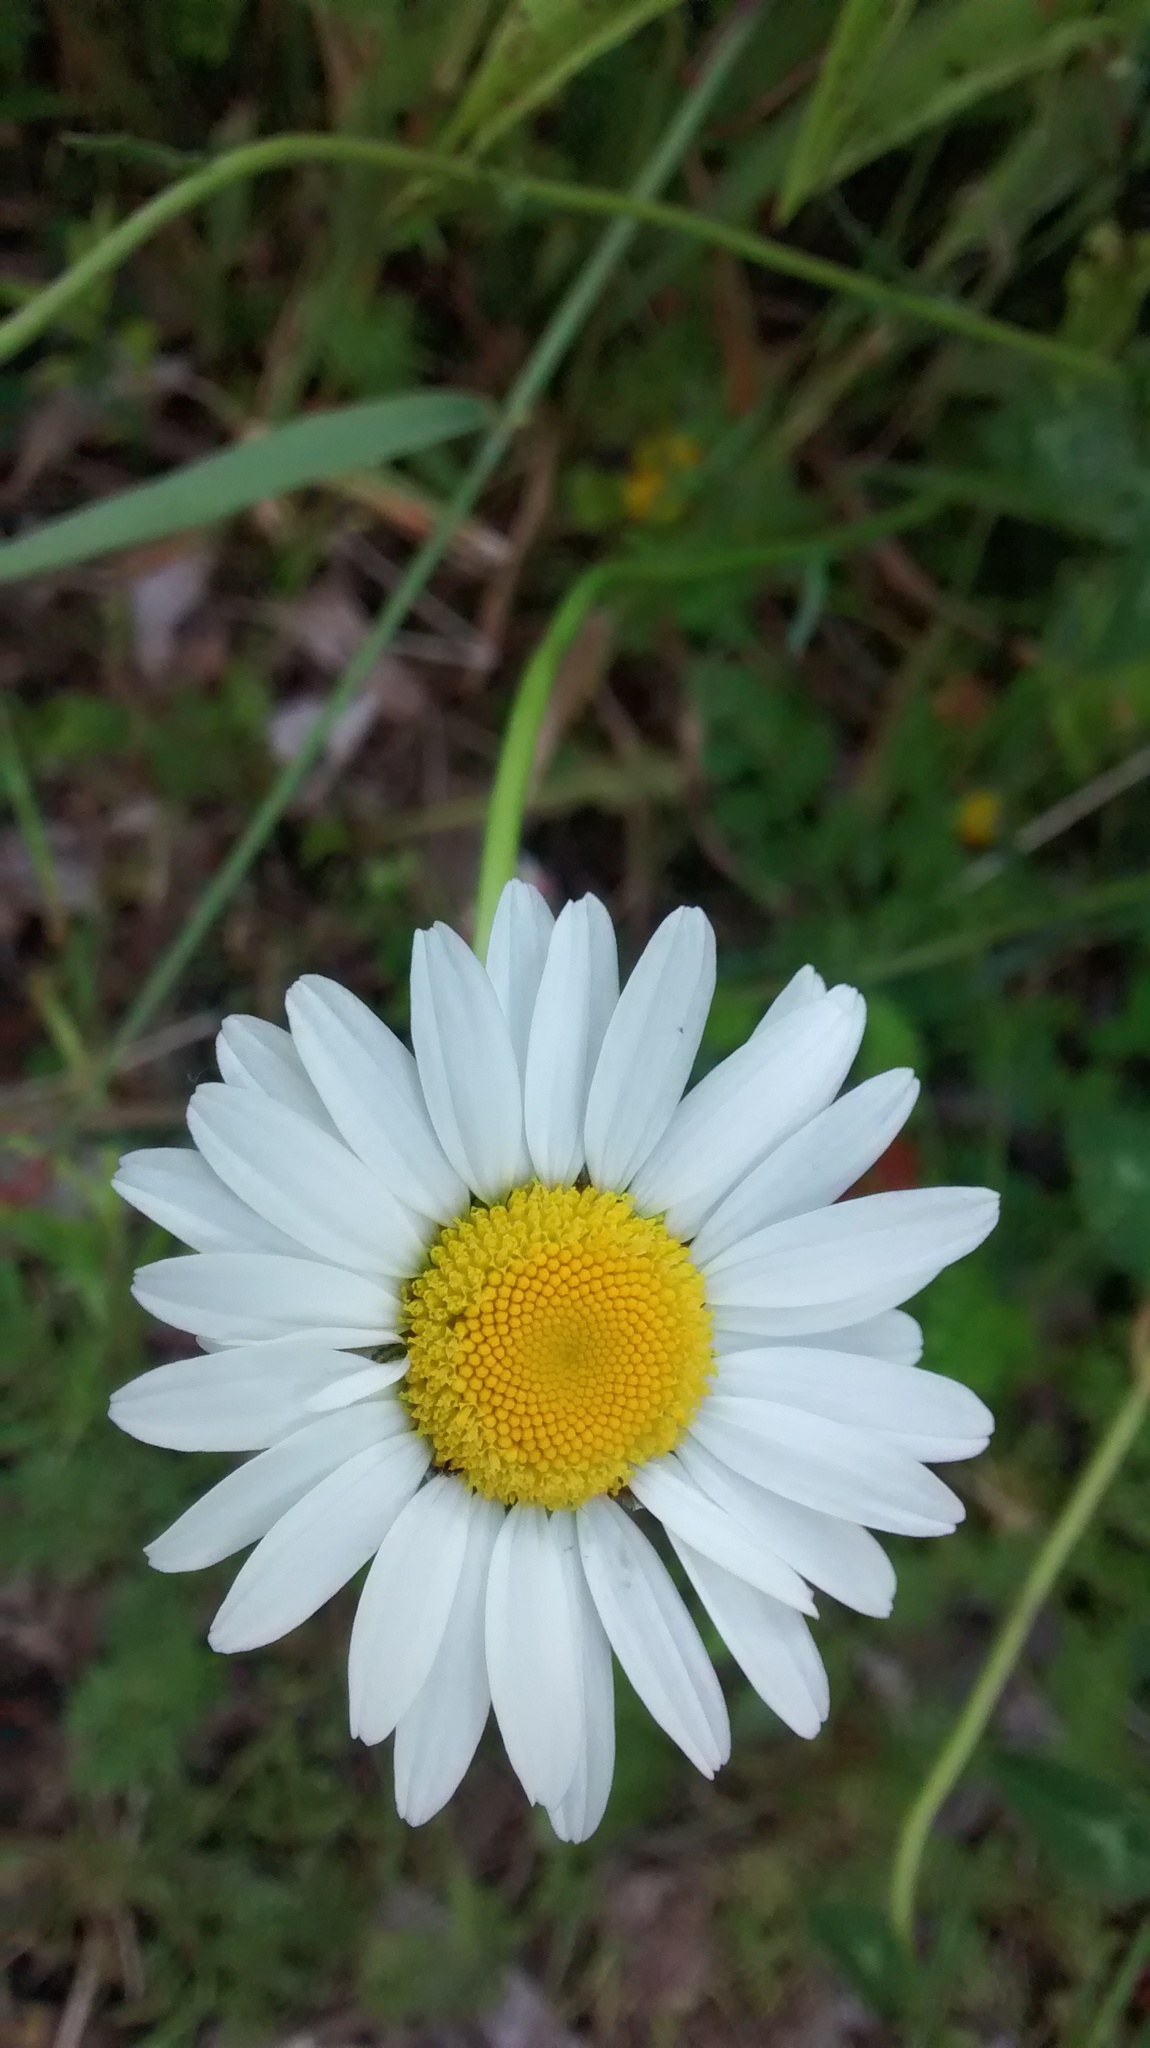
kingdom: Plantae
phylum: Tracheophyta
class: Magnoliopsida
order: Asterales
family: Asteraceae
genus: Leucanthemum
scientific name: Leucanthemum vulgare
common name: Oxeye daisy
